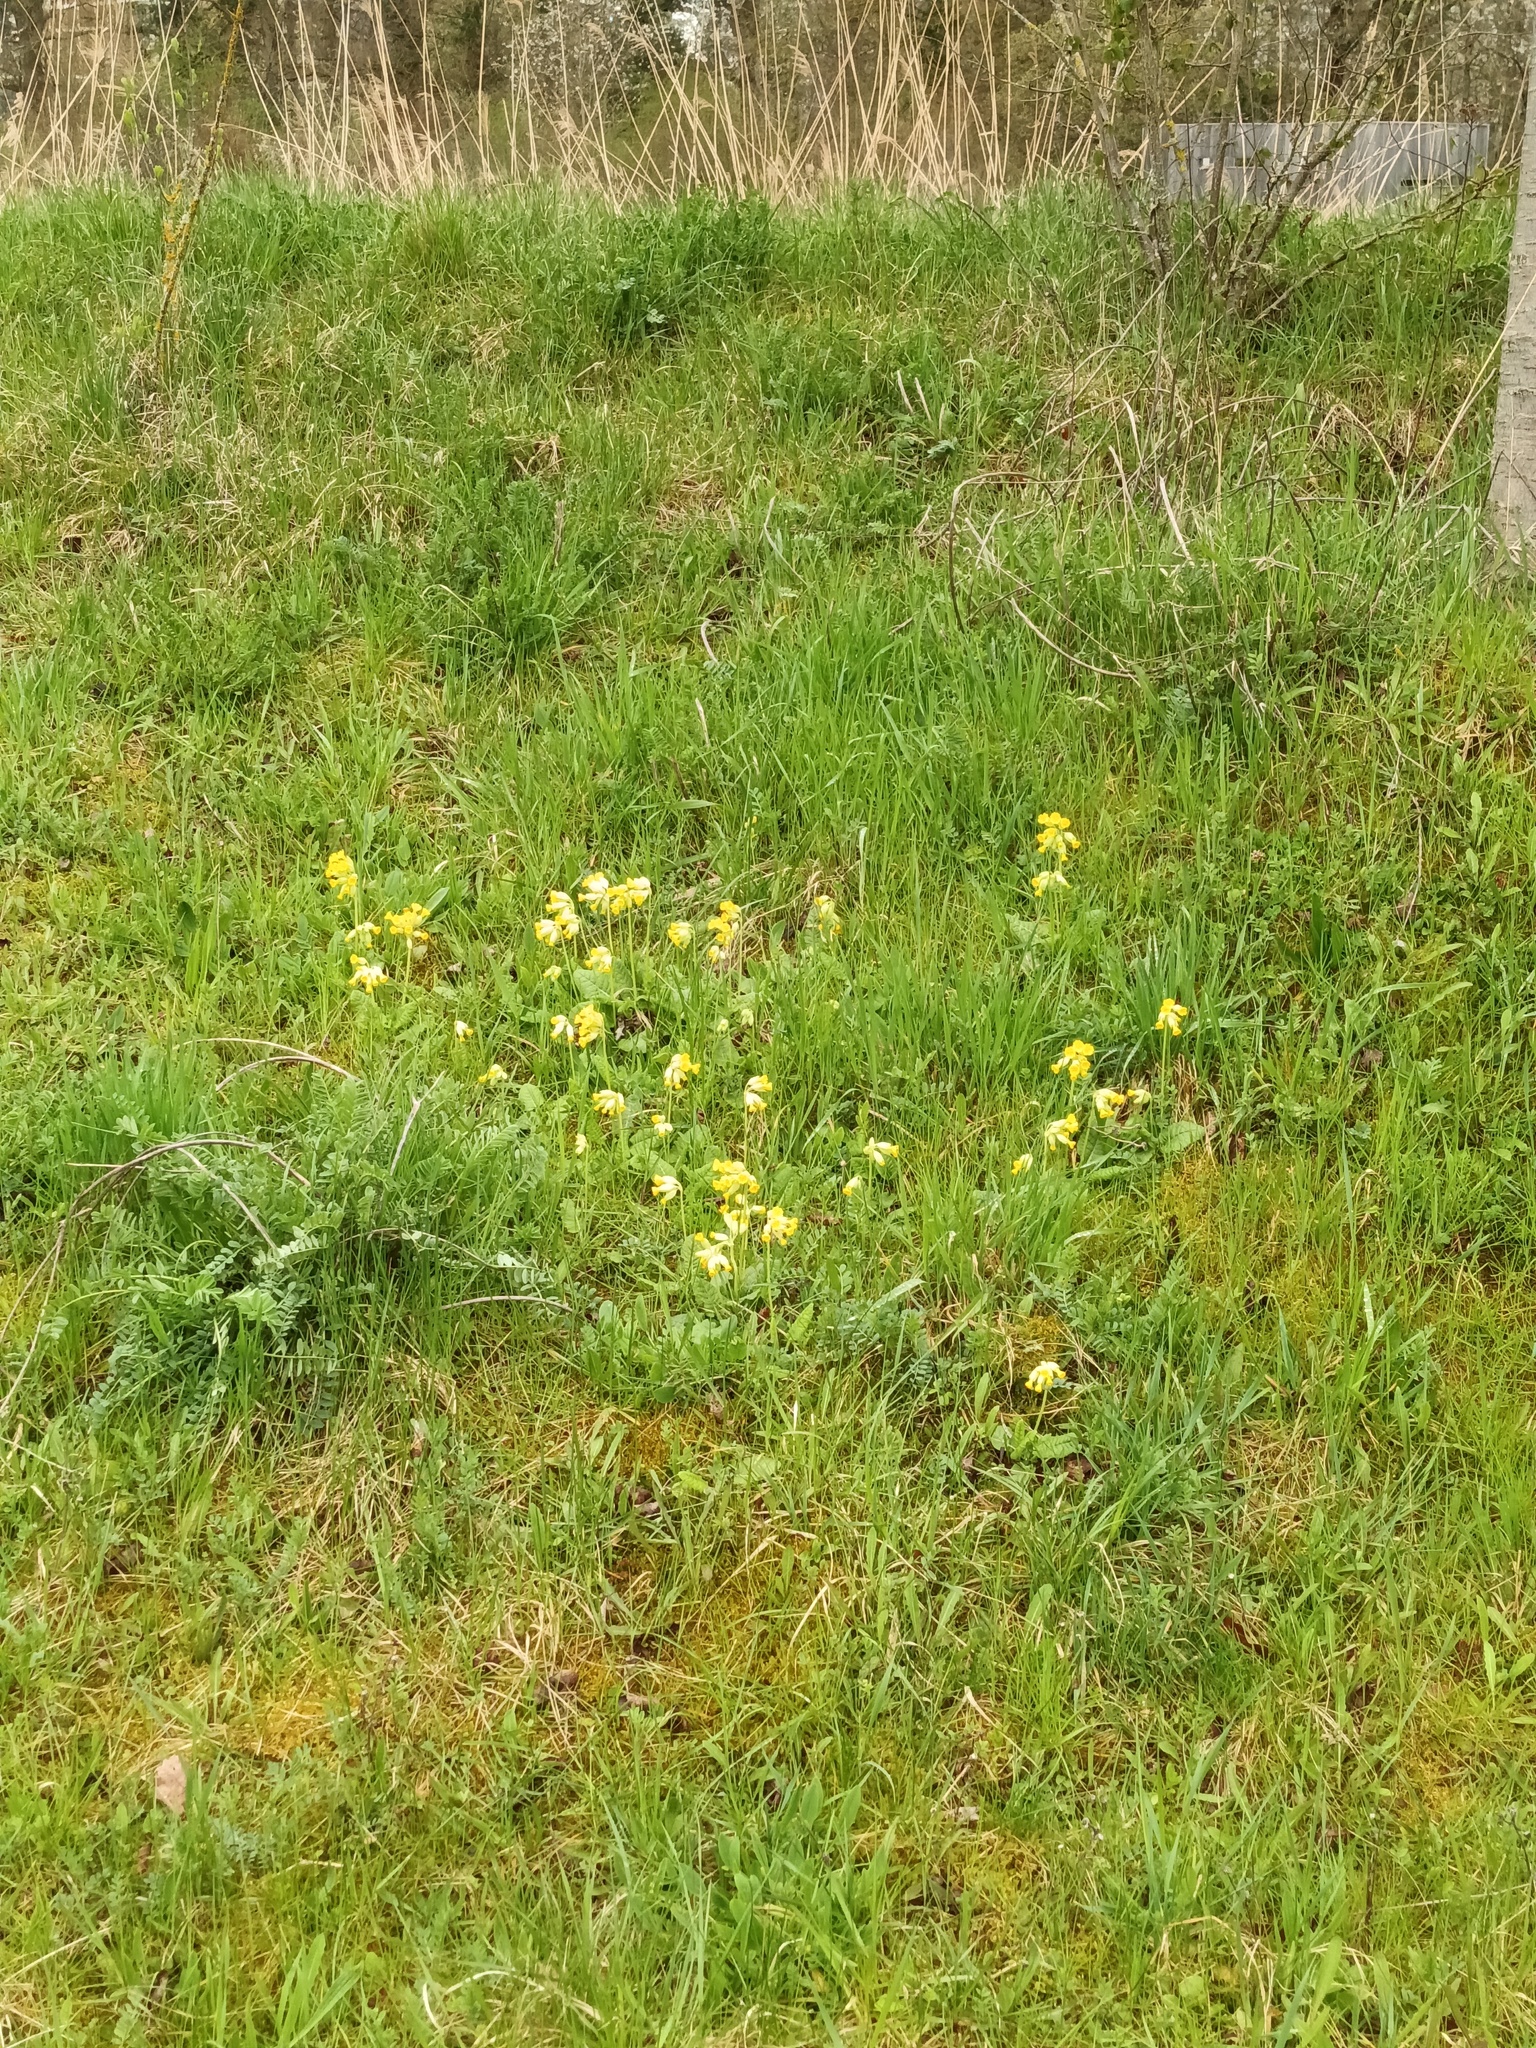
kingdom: Plantae
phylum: Tracheophyta
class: Magnoliopsida
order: Ericales
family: Primulaceae
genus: Primula
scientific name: Primula veris
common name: Cowslip
